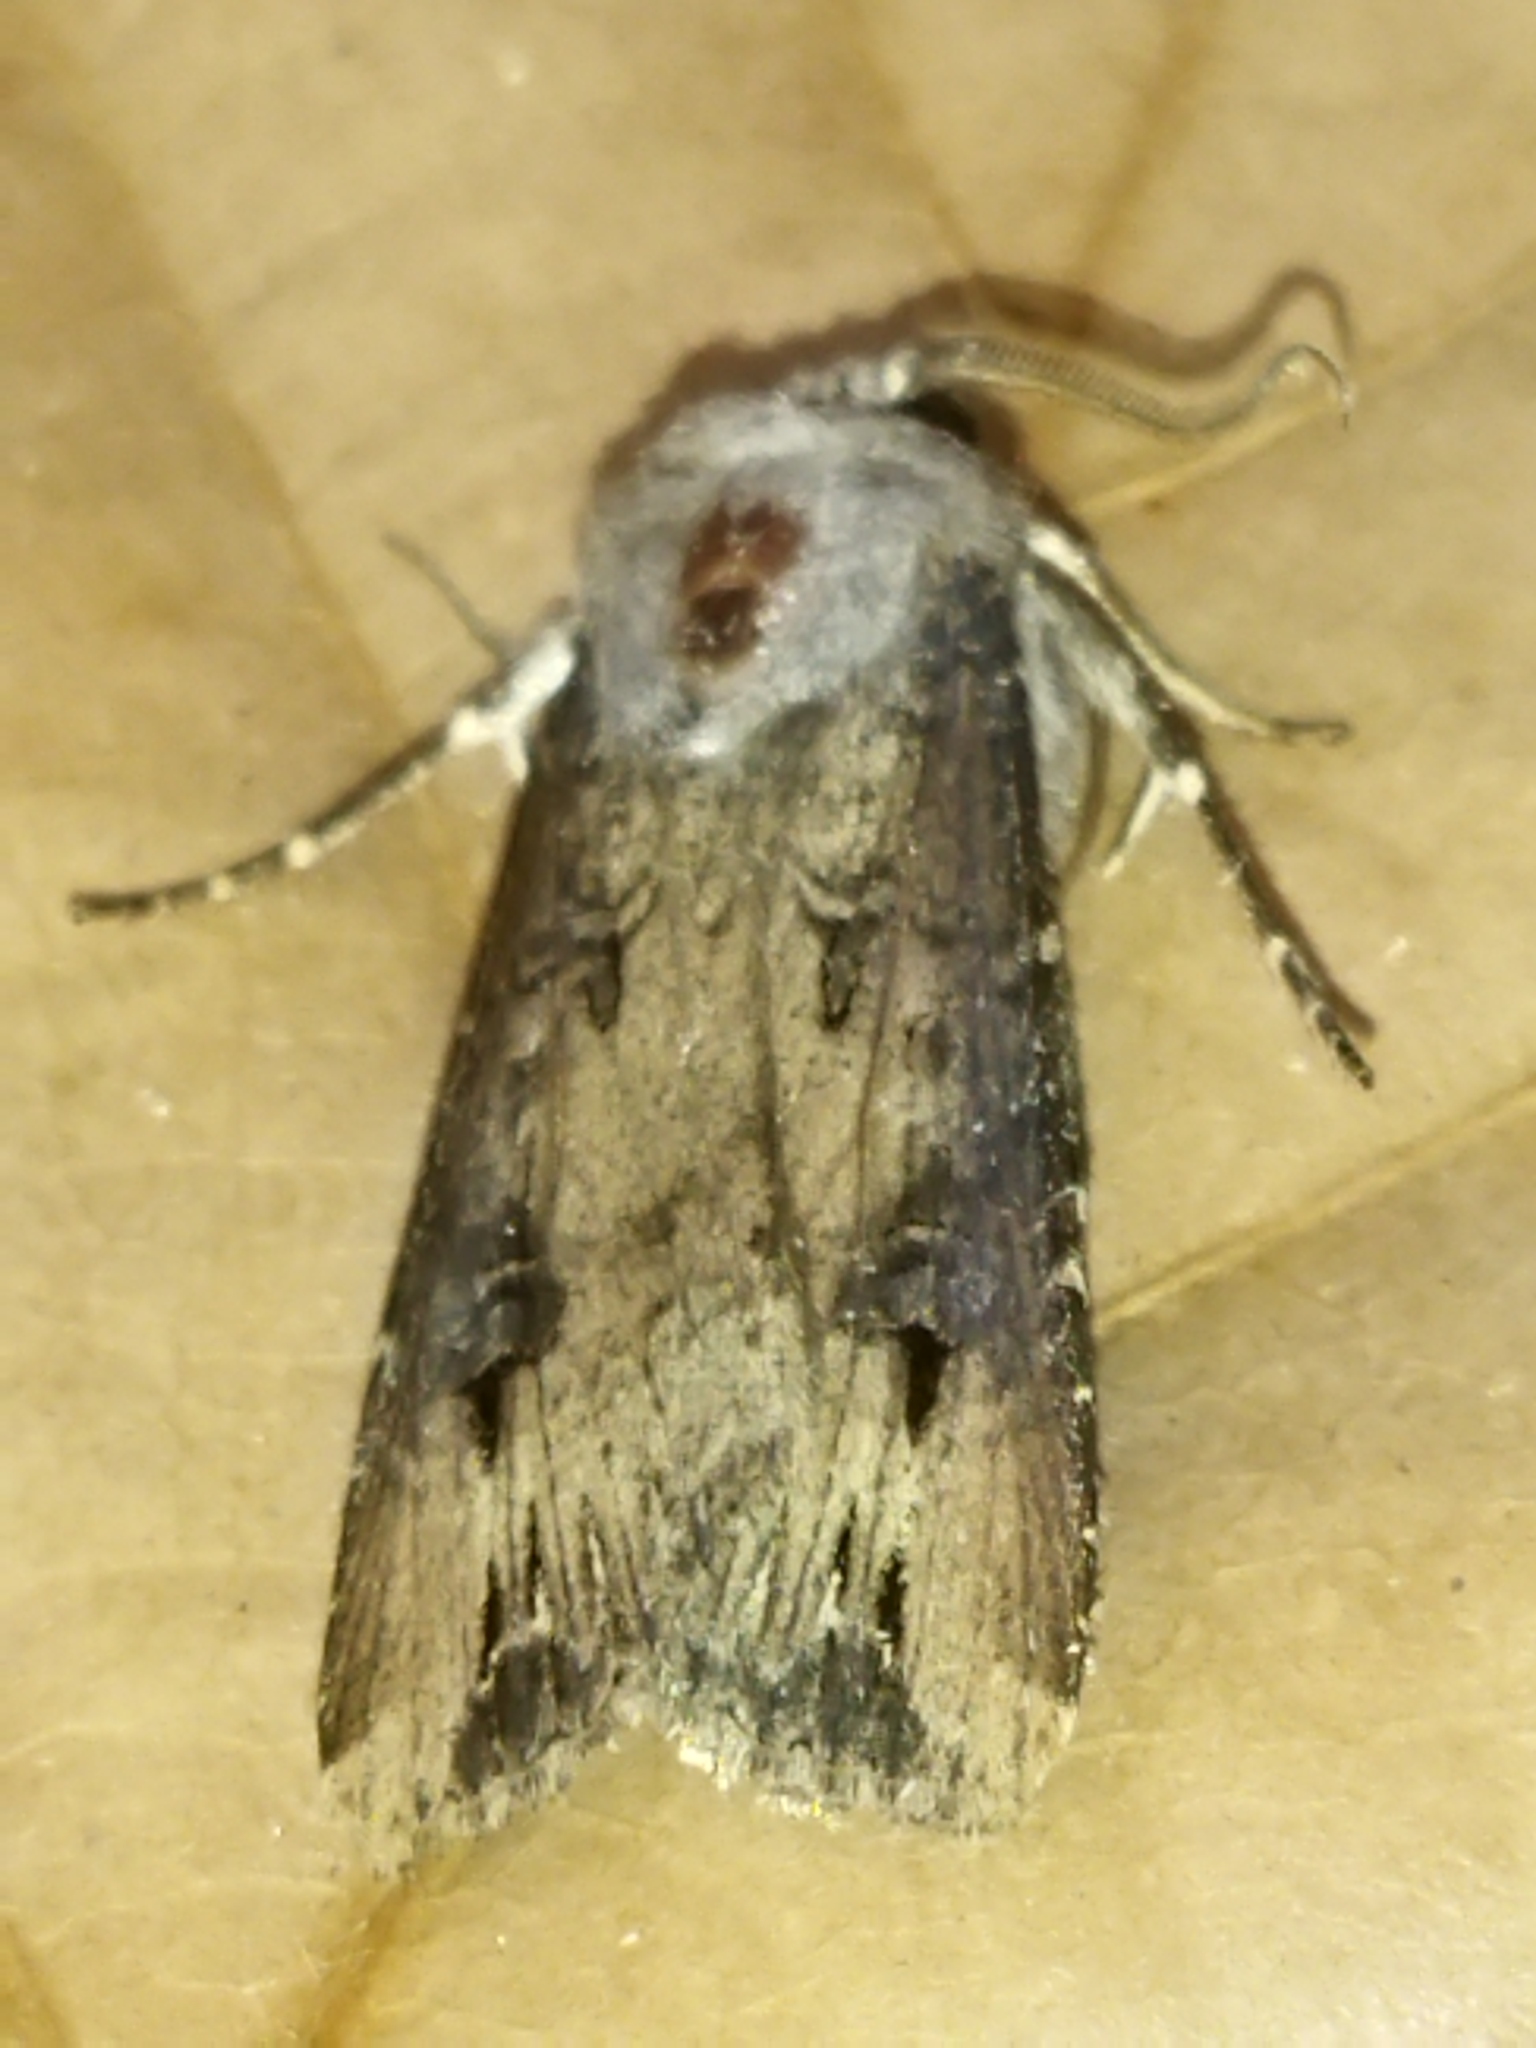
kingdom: Animalia
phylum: Arthropoda
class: Insecta
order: Lepidoptera
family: Noctuidae
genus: Agrotis
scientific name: Agrotis ipsilon
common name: Dark sword-grass
